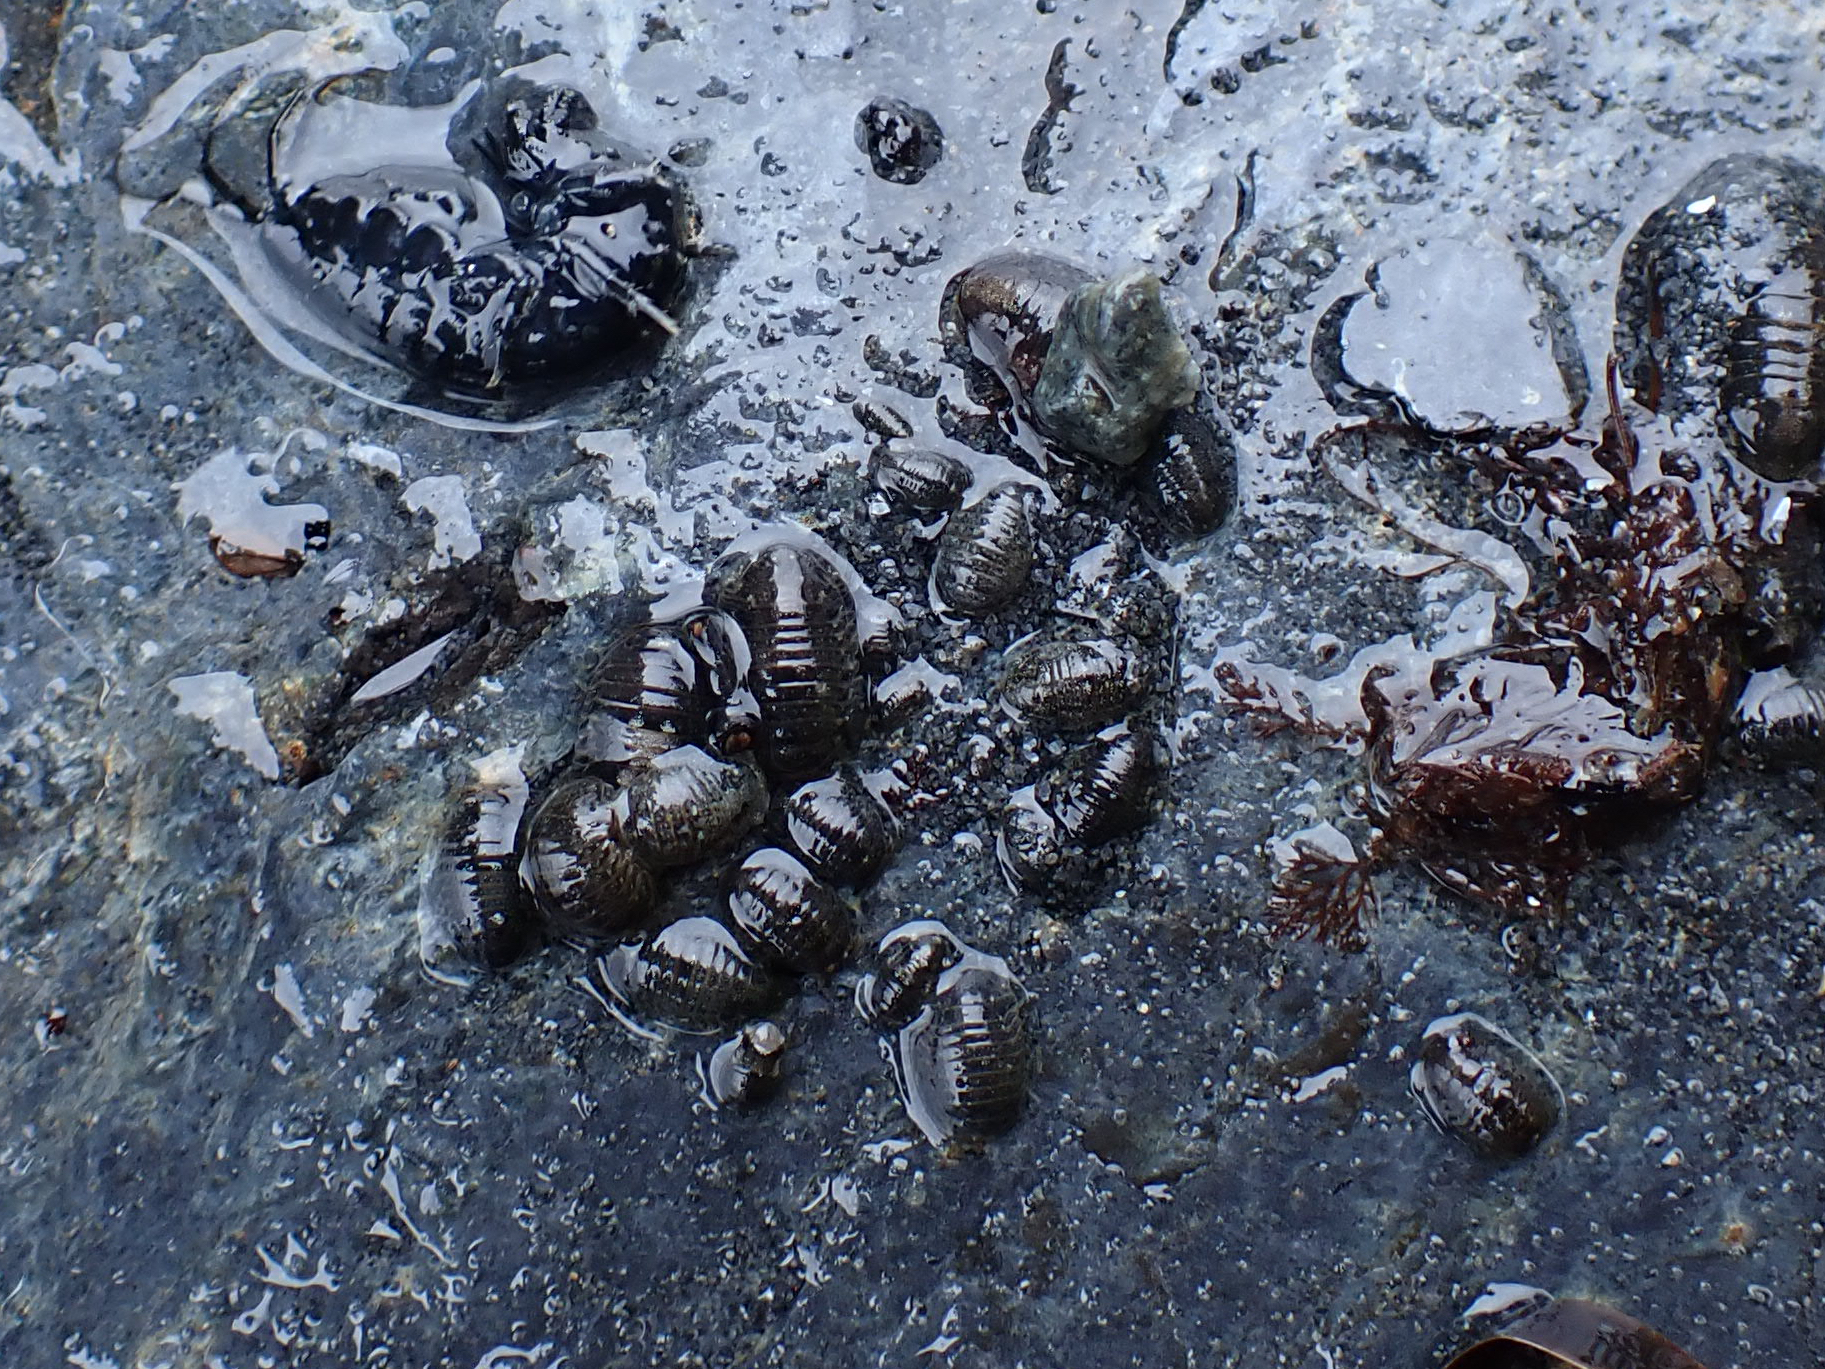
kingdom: Animalia
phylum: Arthropoda
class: Malacostraca
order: Isopoda
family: Sphaeromatidae
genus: Gnorimosphaeroma
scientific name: Gnorimosphaeroma oregonense
